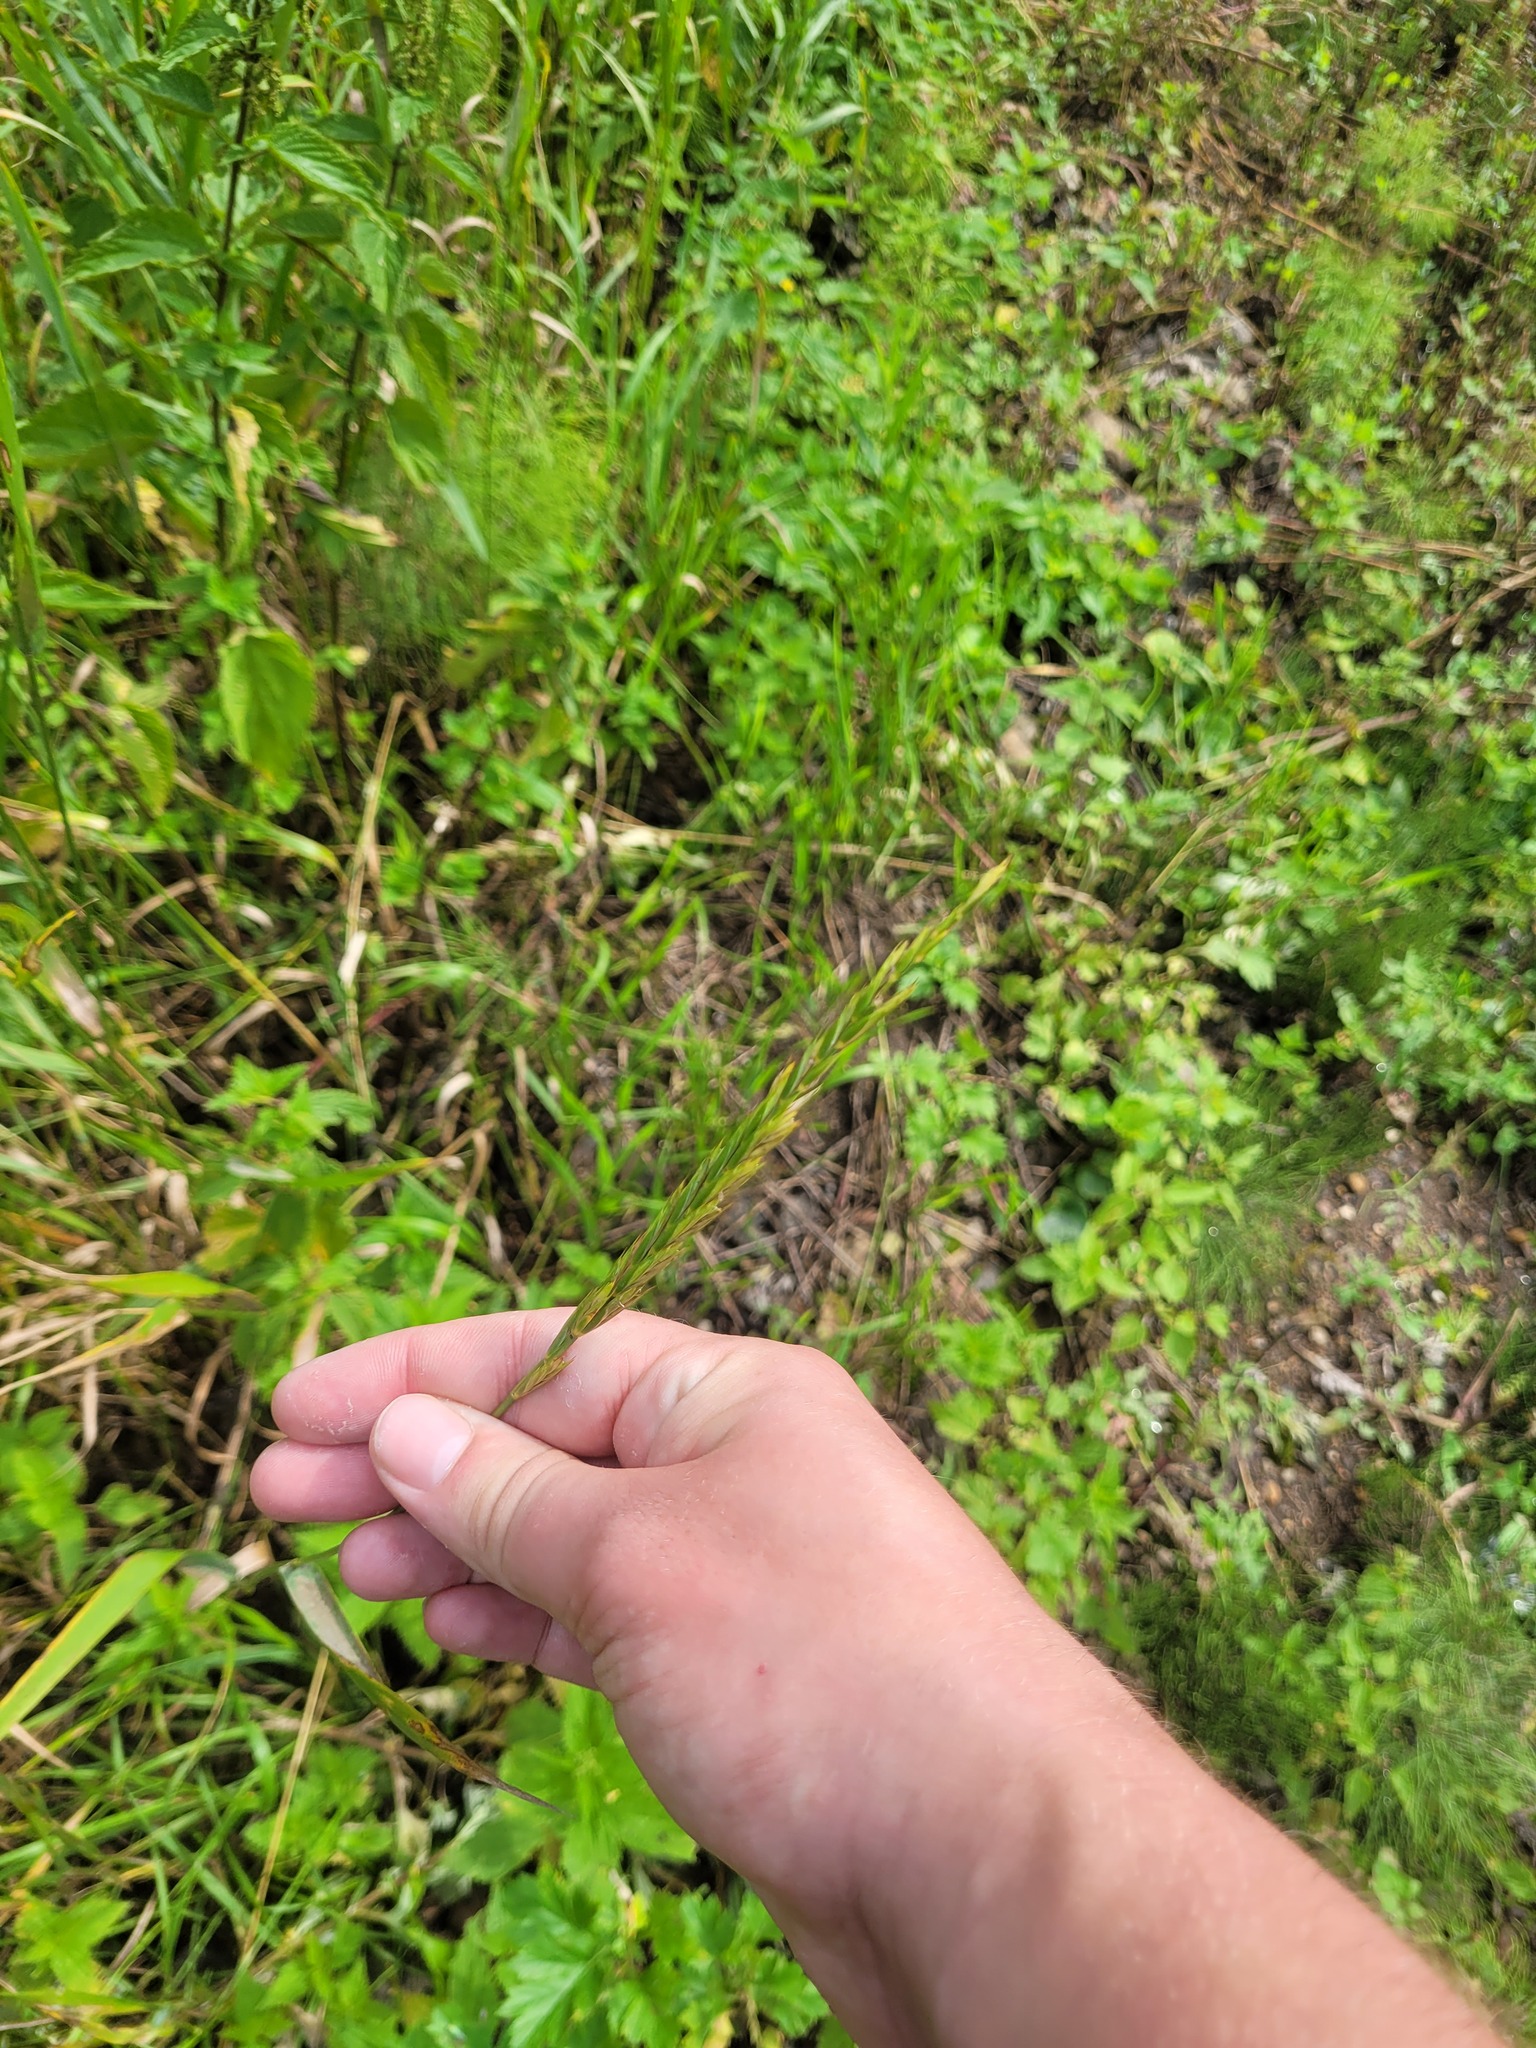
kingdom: Plantae
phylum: Tracheophyta
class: Liliopsida
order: Poales
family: Poaceae
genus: Elymus
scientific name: Elymus repens
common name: Quackgrass
